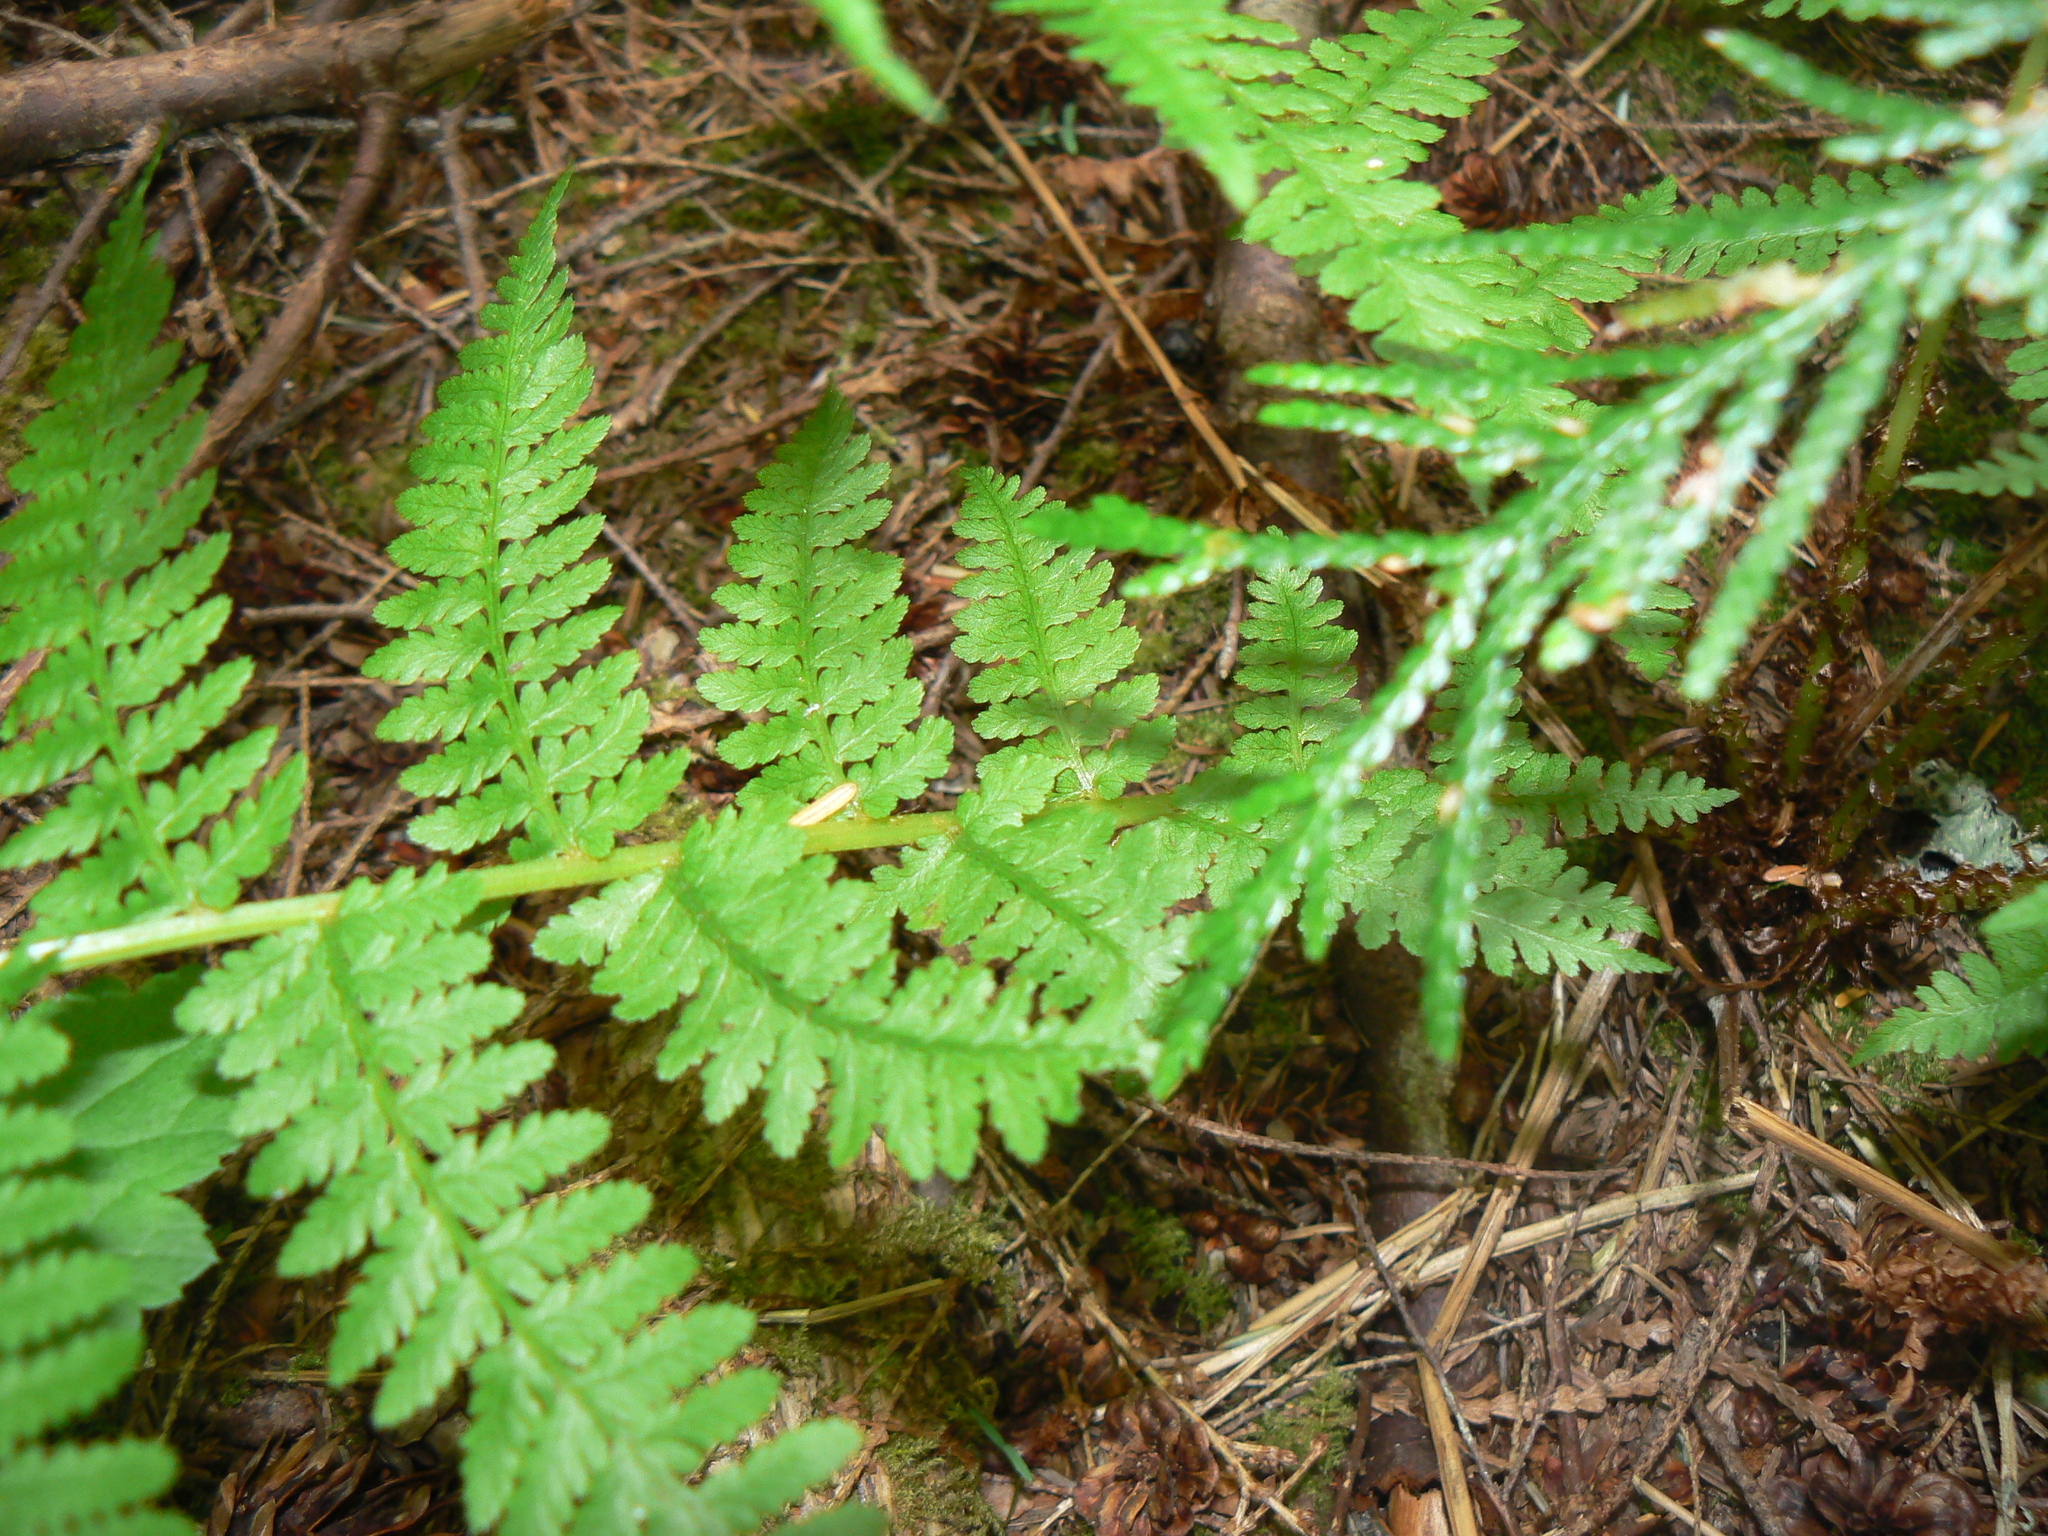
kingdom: Plantae
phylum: Tracheophyta
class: Polypodiopsida
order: Polypodiales
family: Athyriaceae
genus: Athyrium
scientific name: Athyrium cyclosorum
